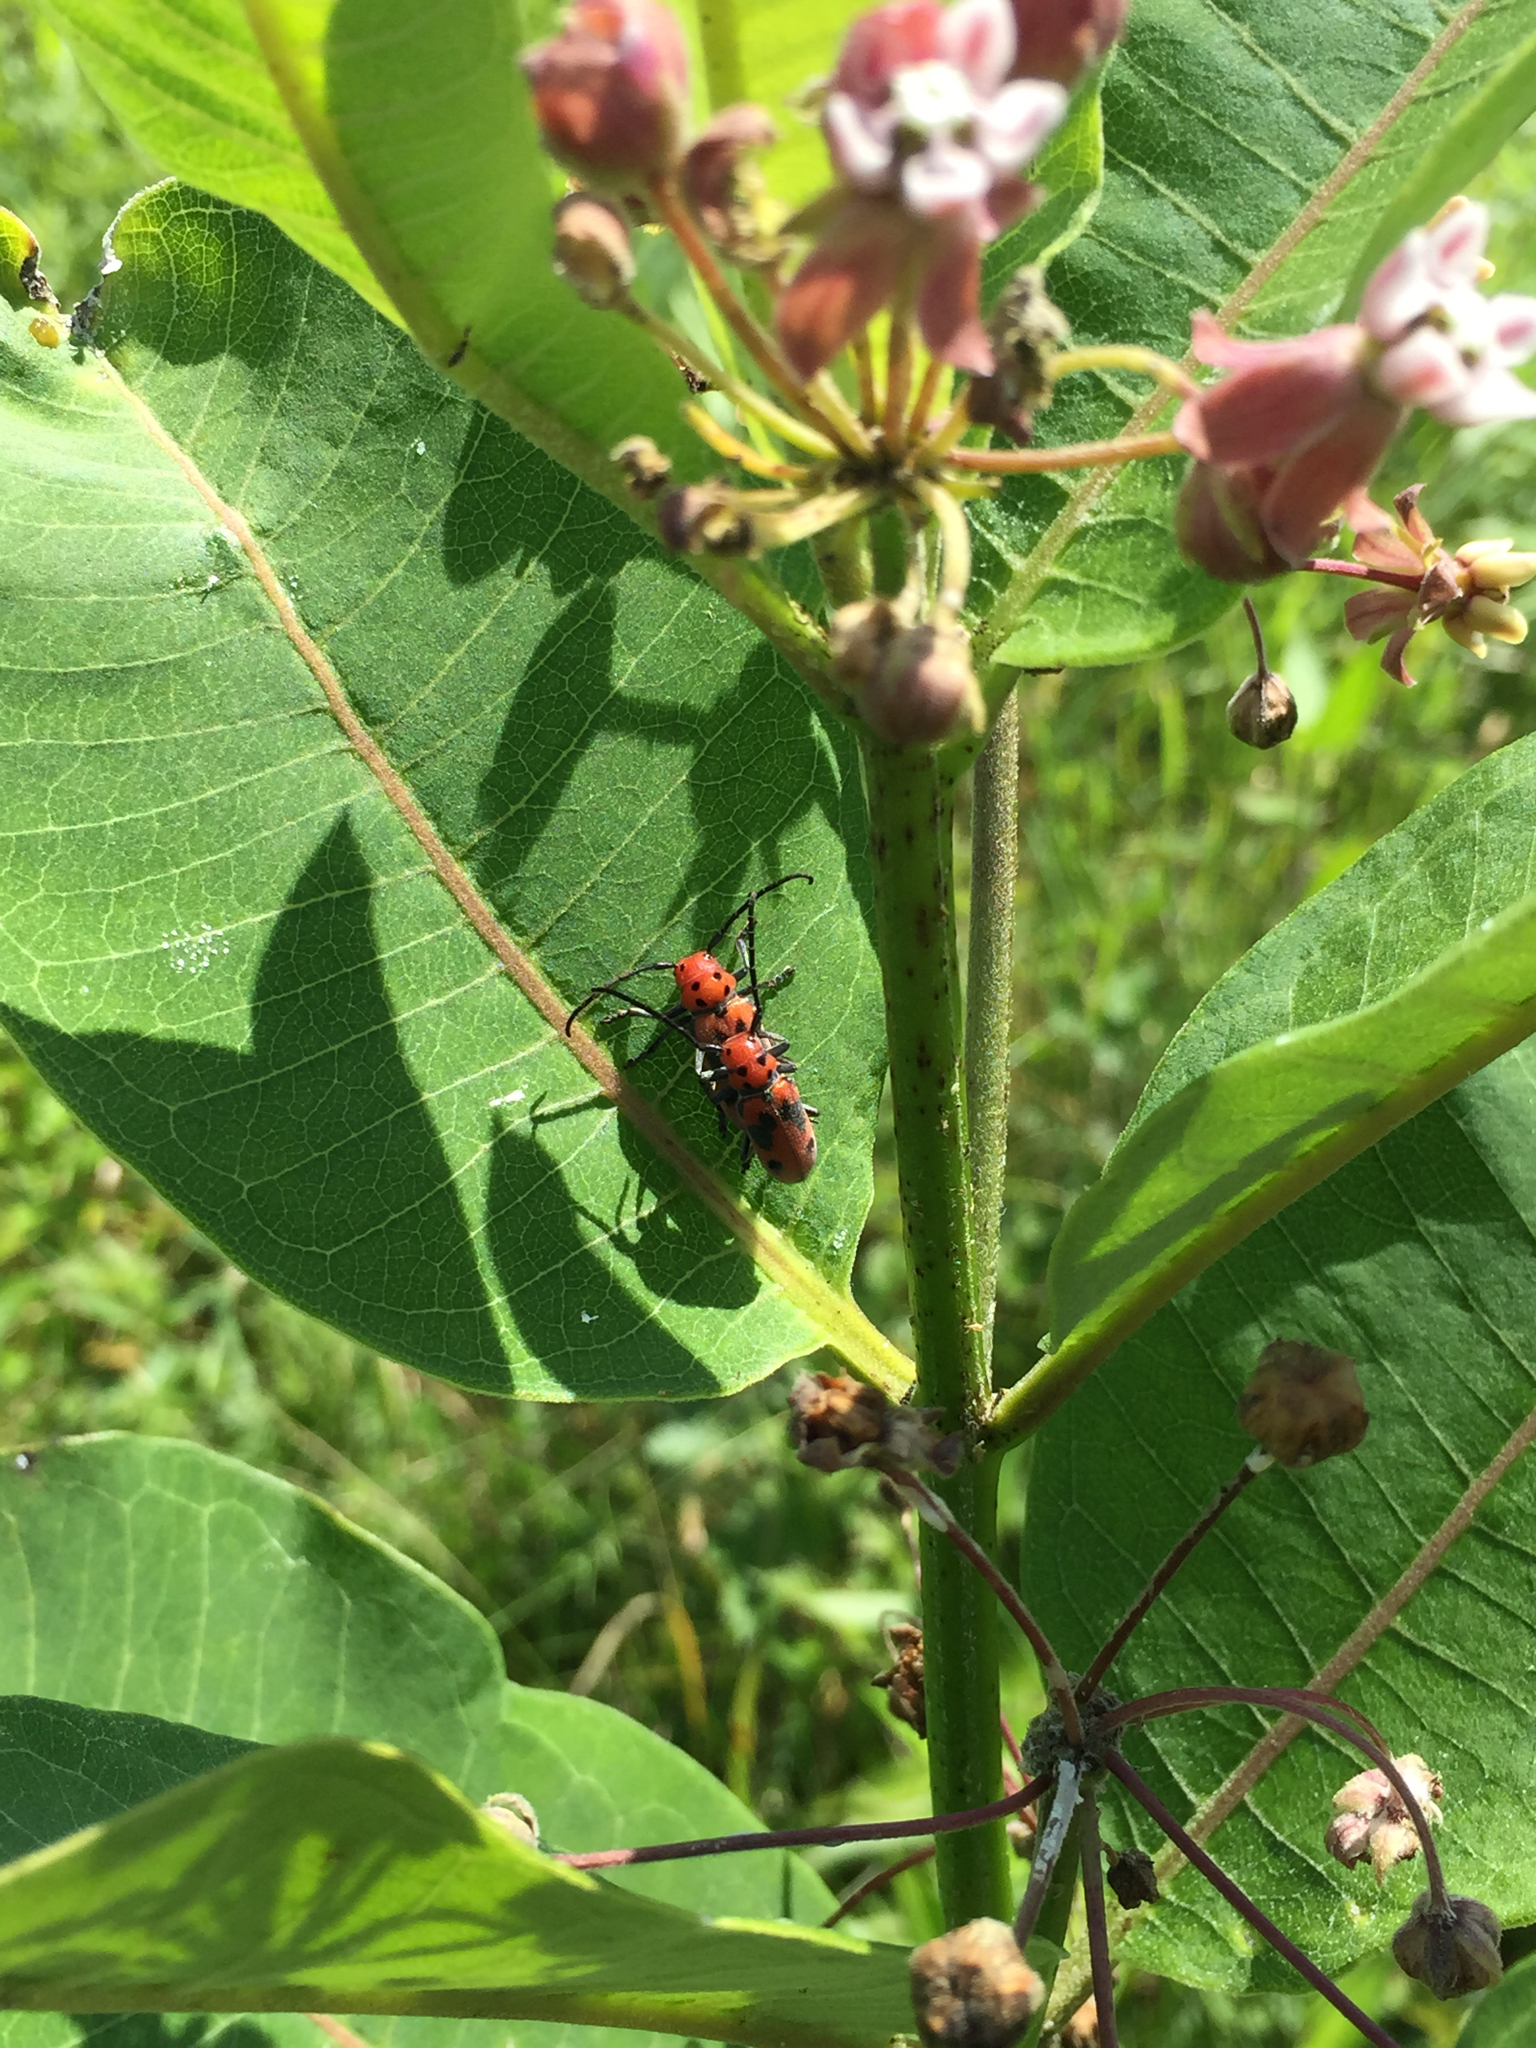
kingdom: Animalia
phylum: Arthropoda
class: Insecta
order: Coleoptera
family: Cerambycidae
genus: Tetraopes
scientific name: Tetraopes tetrophthalmus
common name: Red milkweed beetle
